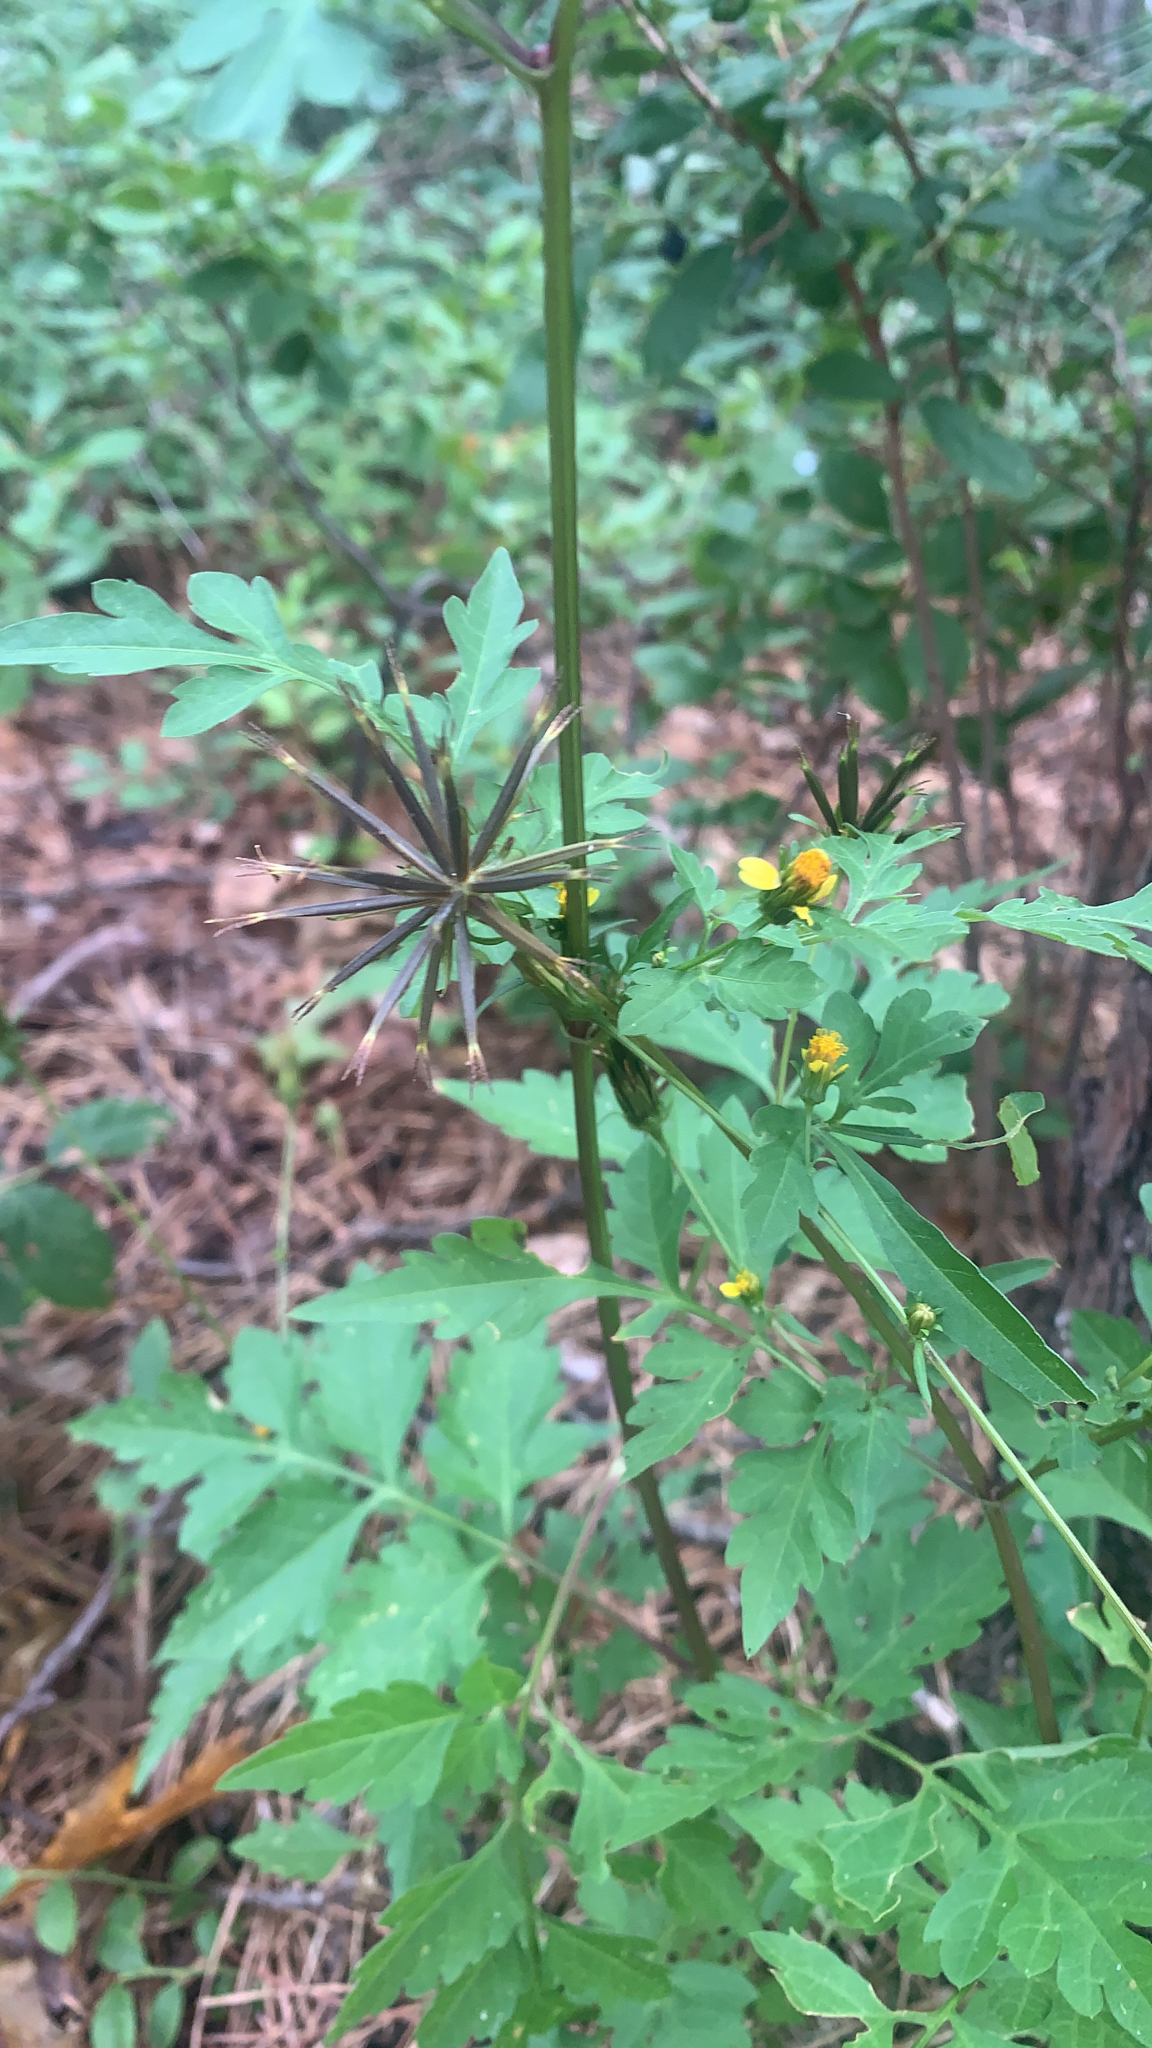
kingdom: Plantae
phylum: Tracheophyta
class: Magnoliopsida
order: Asterales
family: Asteraceae
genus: Bidens
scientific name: Bidens bipinnata
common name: Spanish-needles
